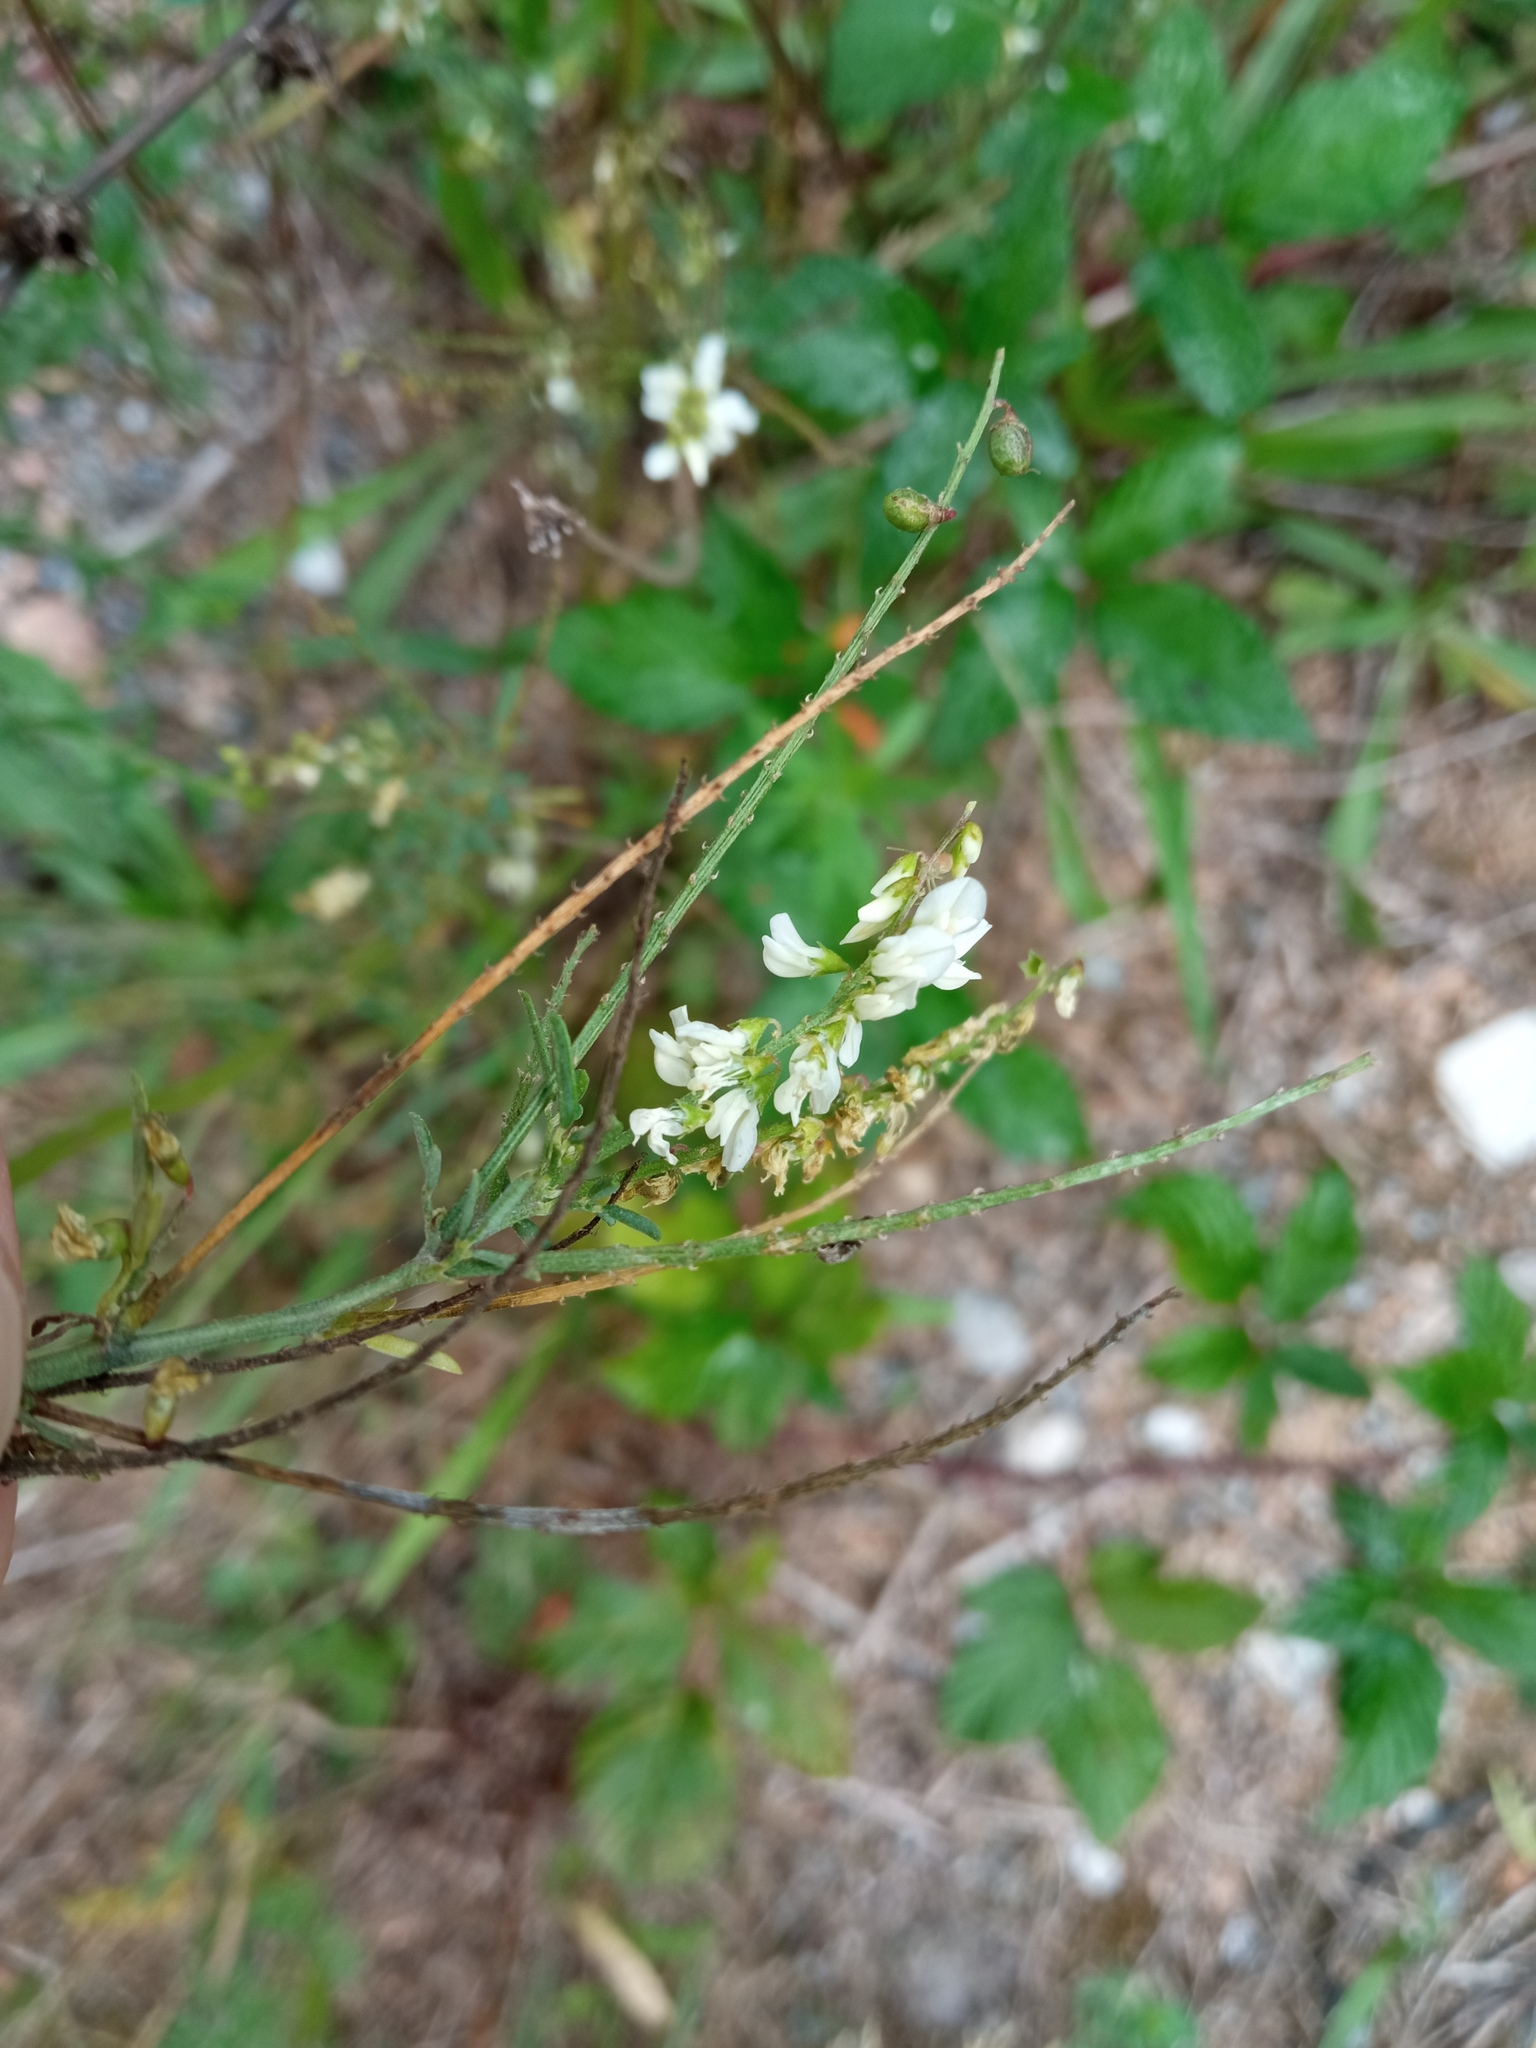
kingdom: Plantae
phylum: Tracheophyta
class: Magnoliopsida
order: Fabales
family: Fabaceae
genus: Melilotus
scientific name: Melilotus albus
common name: White melilot
